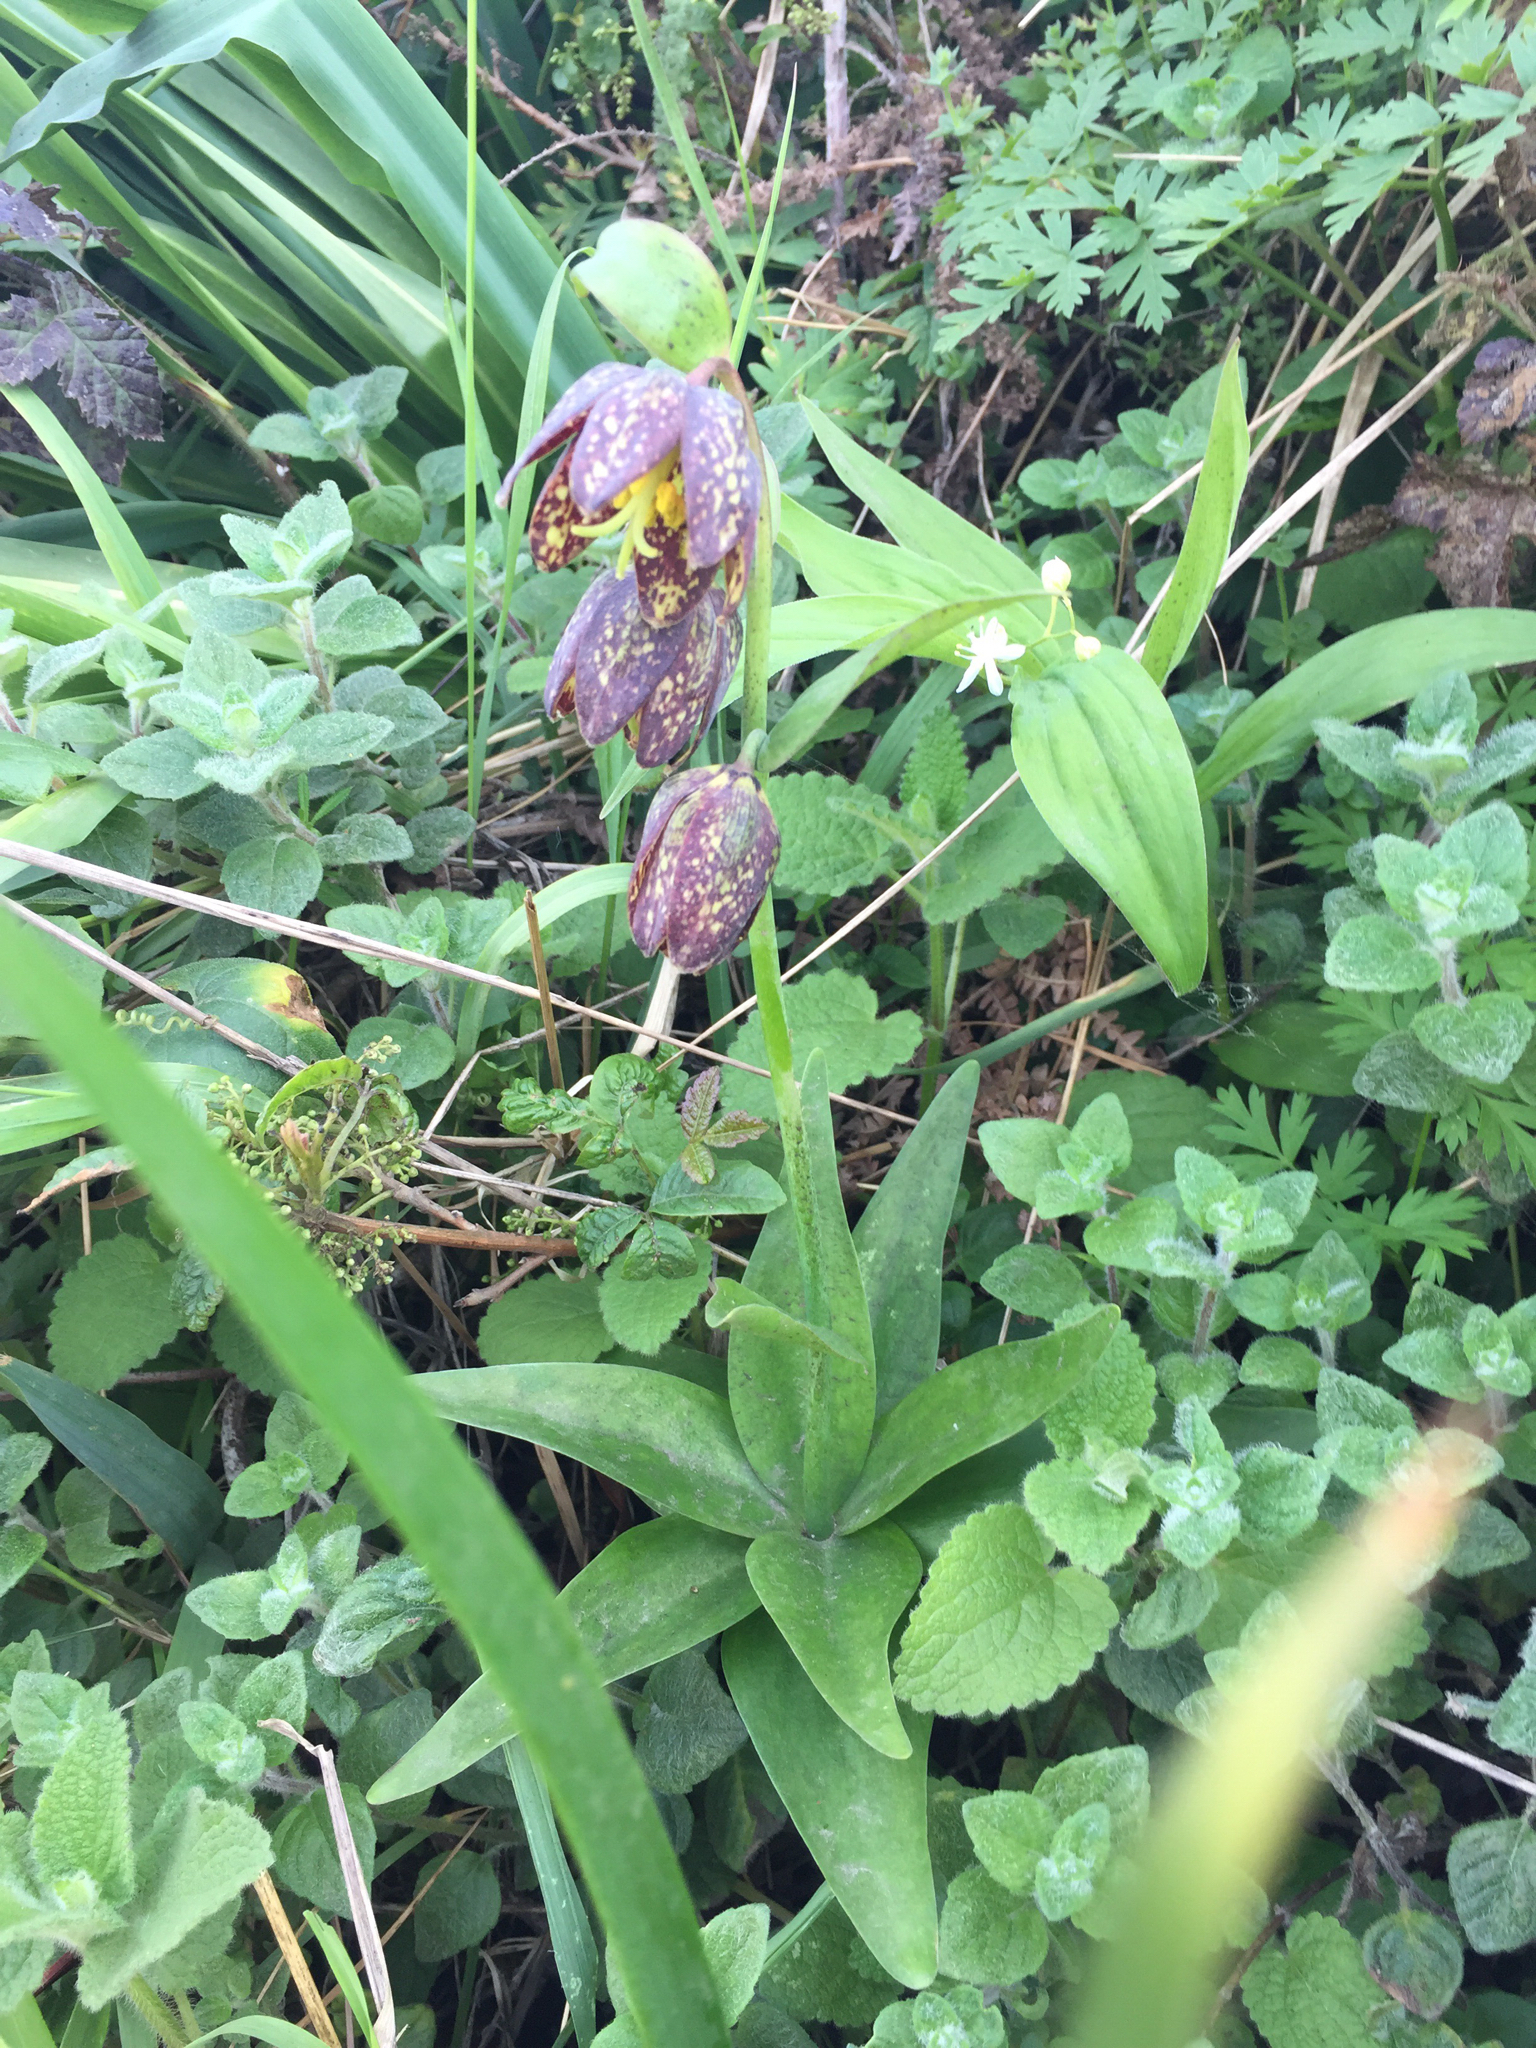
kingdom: Plantae
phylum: Tracheophyta
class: Liliopsida
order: Liliales
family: Liliaceae
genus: Fritillaria
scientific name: Fritillaria affinis
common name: Ojai fritillary
